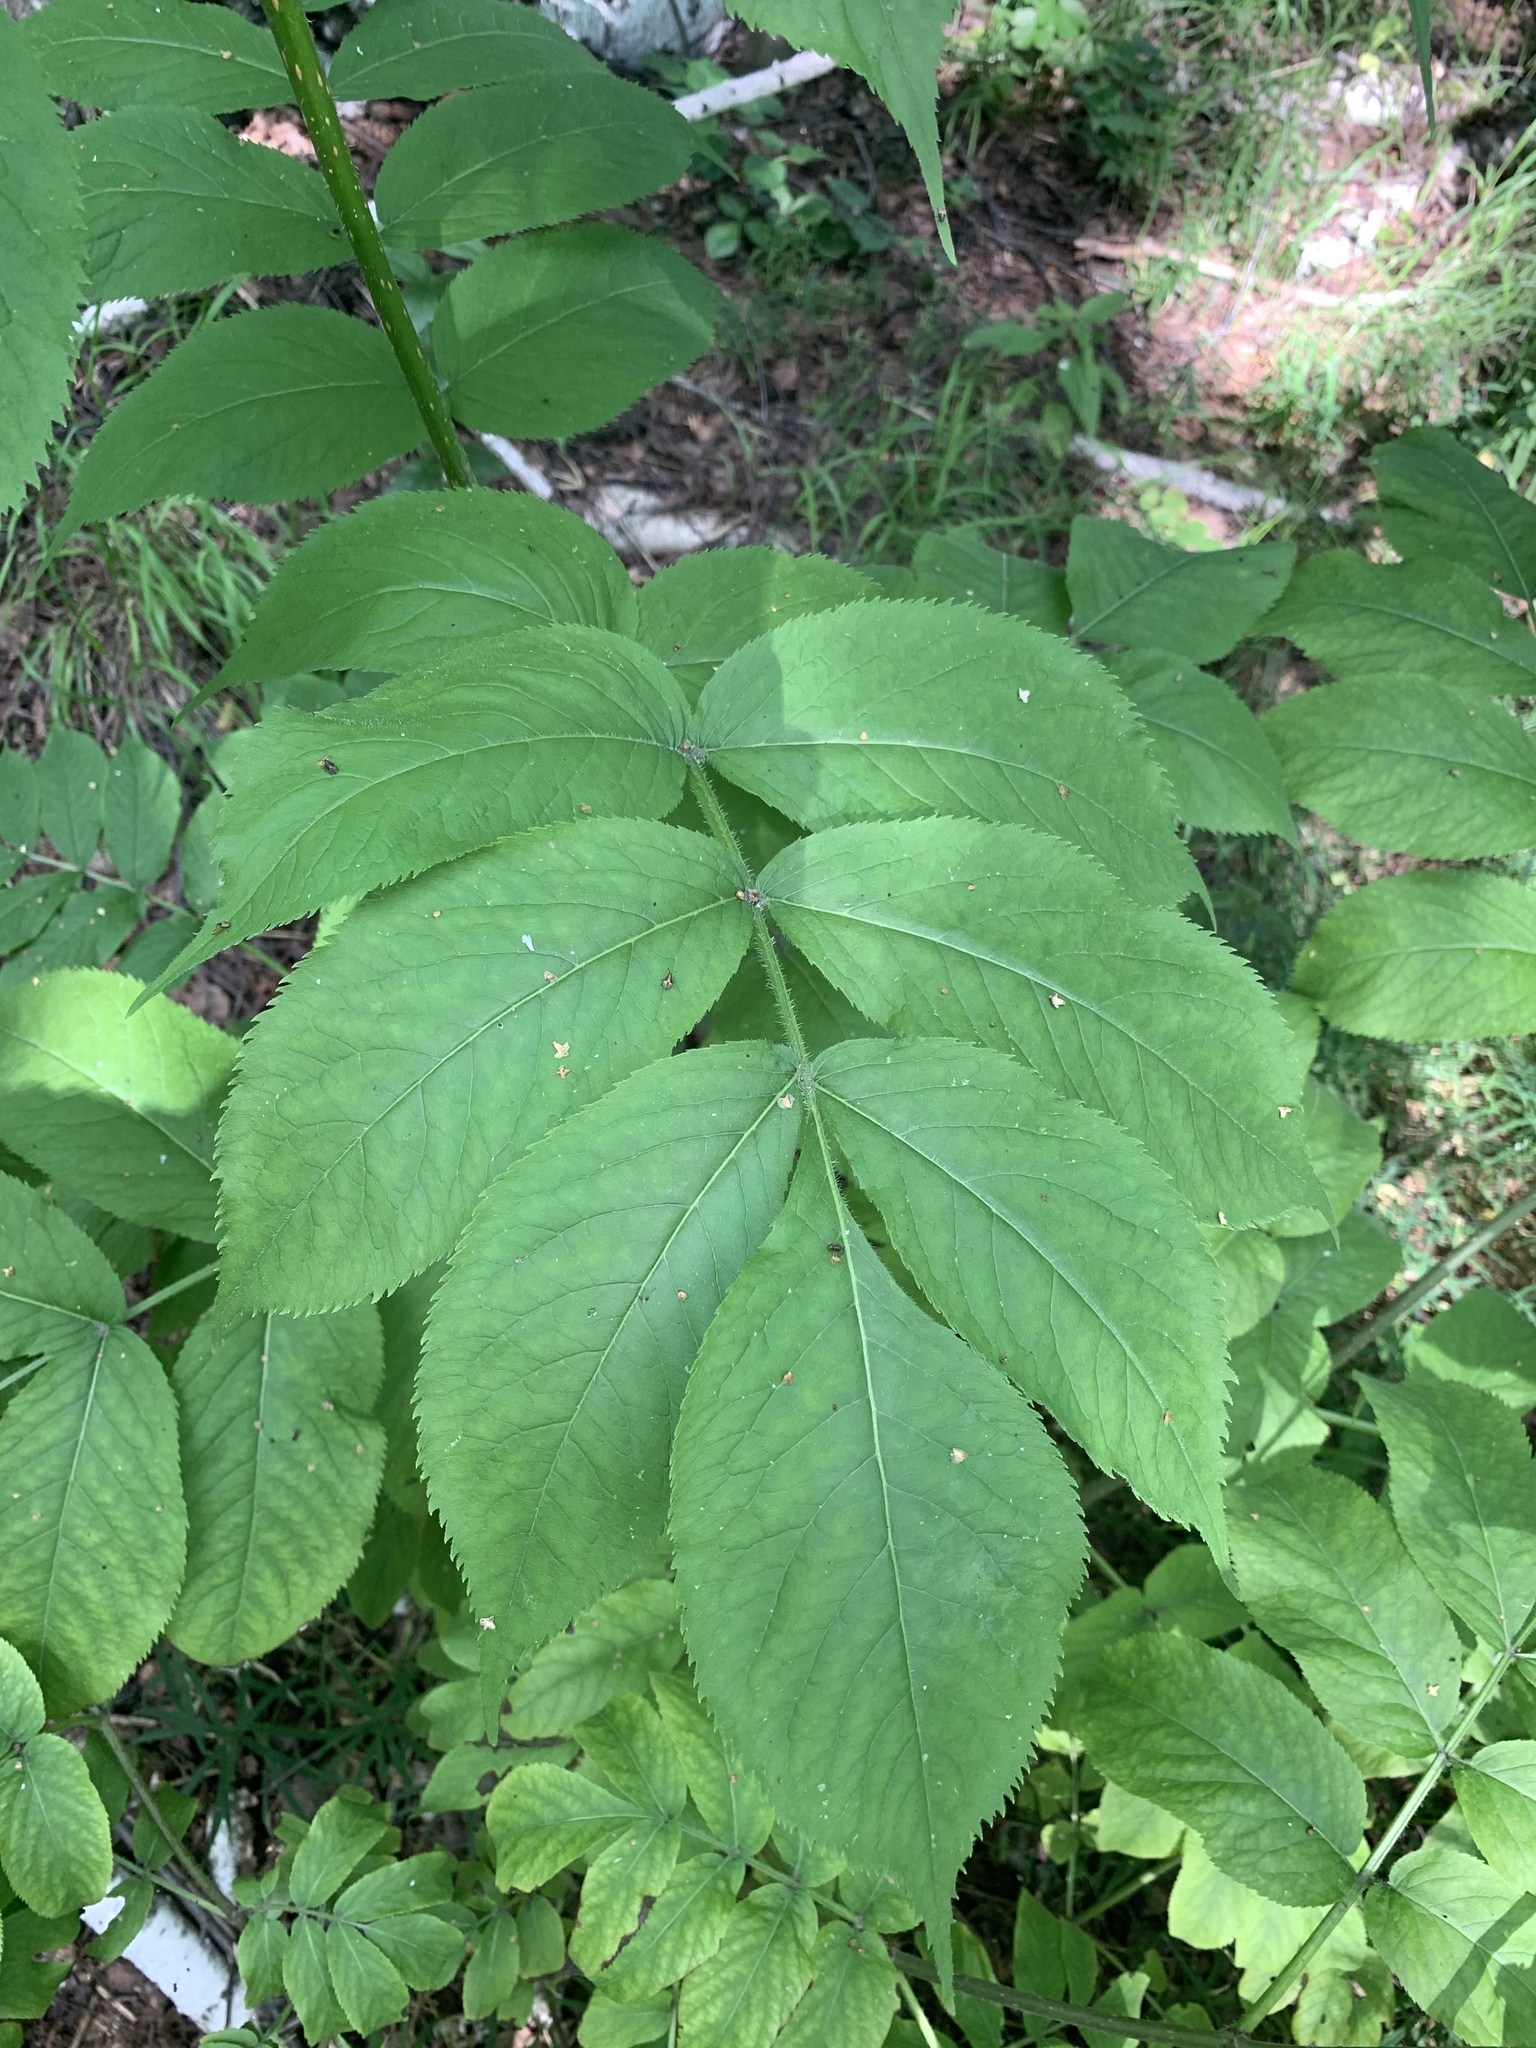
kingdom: Plantae
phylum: Tracheophyta
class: Magnoliopsida
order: Dipsacales
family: Viburnaceae
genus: Sambucus
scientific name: Sambucus sibirica
